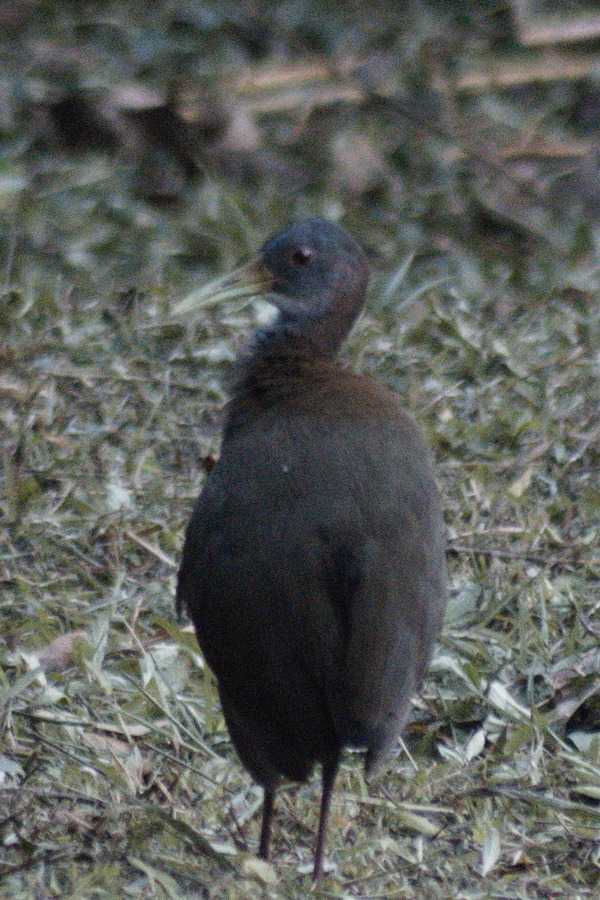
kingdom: Animalia
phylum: Chordata
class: Aves
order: Gruiformes
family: Rallidae
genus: Aramides
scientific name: Aramides saracura
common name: Slaty-breasted wood rail
